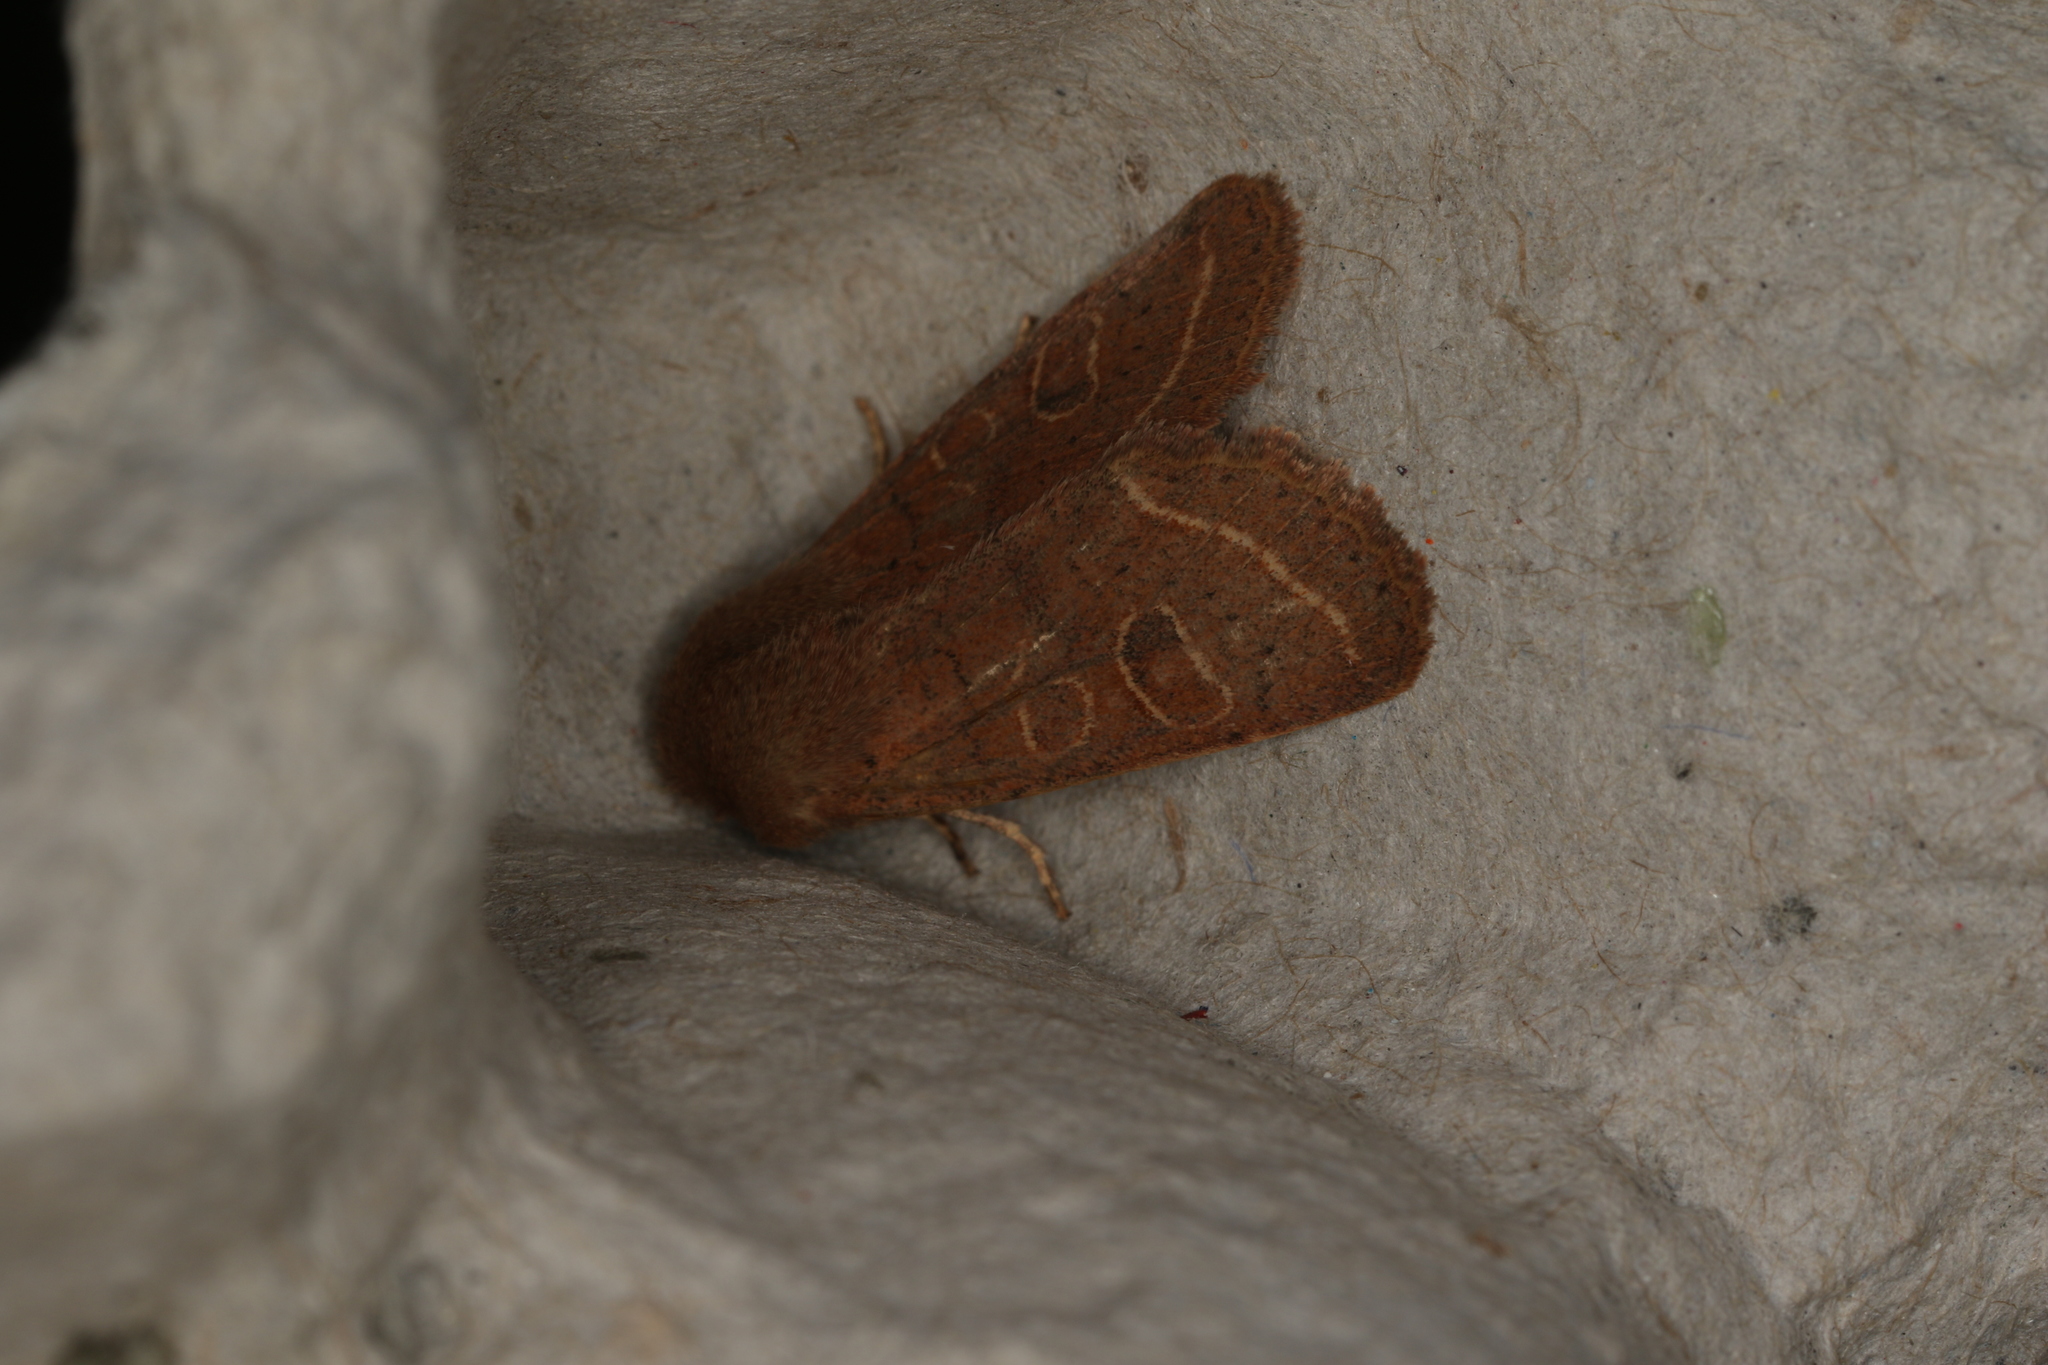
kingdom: Animalia
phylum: Arthropoda
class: Insecta
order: Lepidoptera
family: Noctuidae
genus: Orthosia
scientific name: Orthosia cerasi
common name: Common quaker
